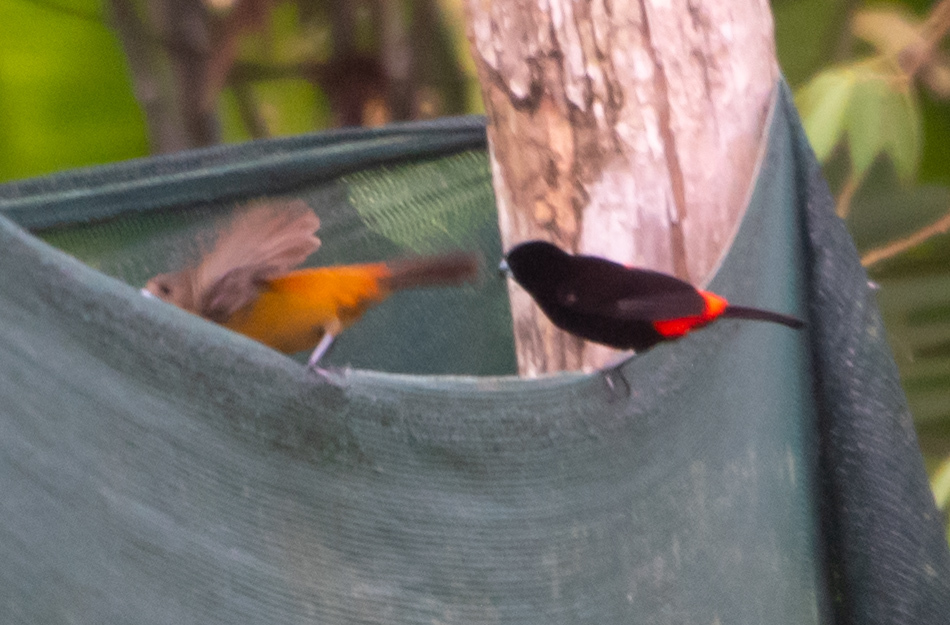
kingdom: Animalia
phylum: Chordata
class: Aves
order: Passeriformes
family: Thraupidae
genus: Ramphocelus
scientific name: Ramphocelus passerinii
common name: Passerini's tanager
